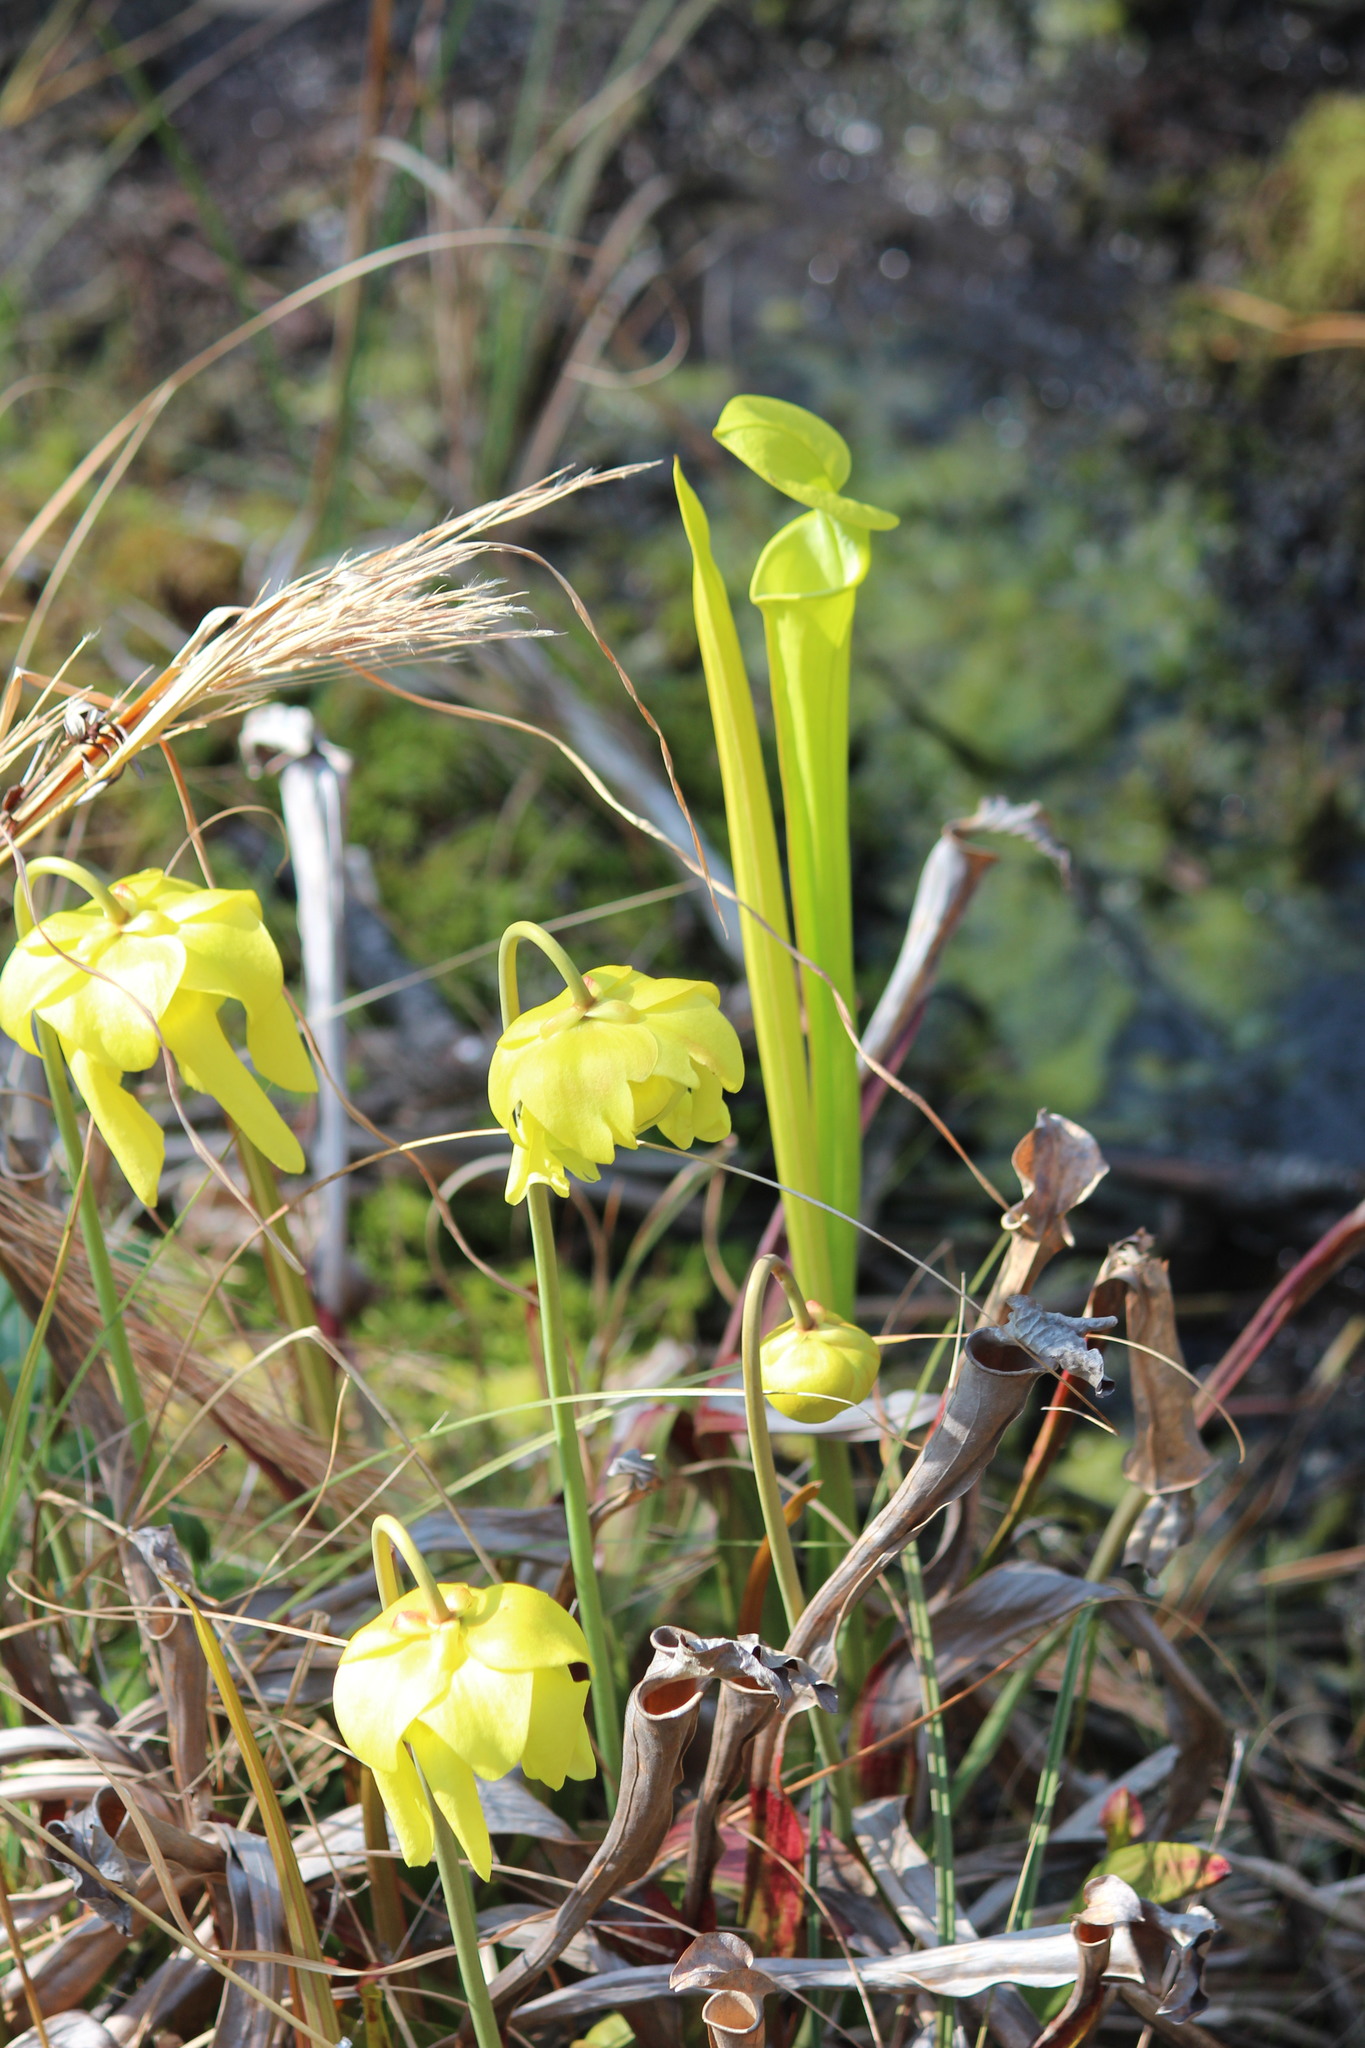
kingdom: Plantae
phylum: Tracheophyta
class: Magnoliopsida
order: Ericales
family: Sarraceniaceae
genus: Sarracenia
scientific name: Sarracenia flava
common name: Trumpets
